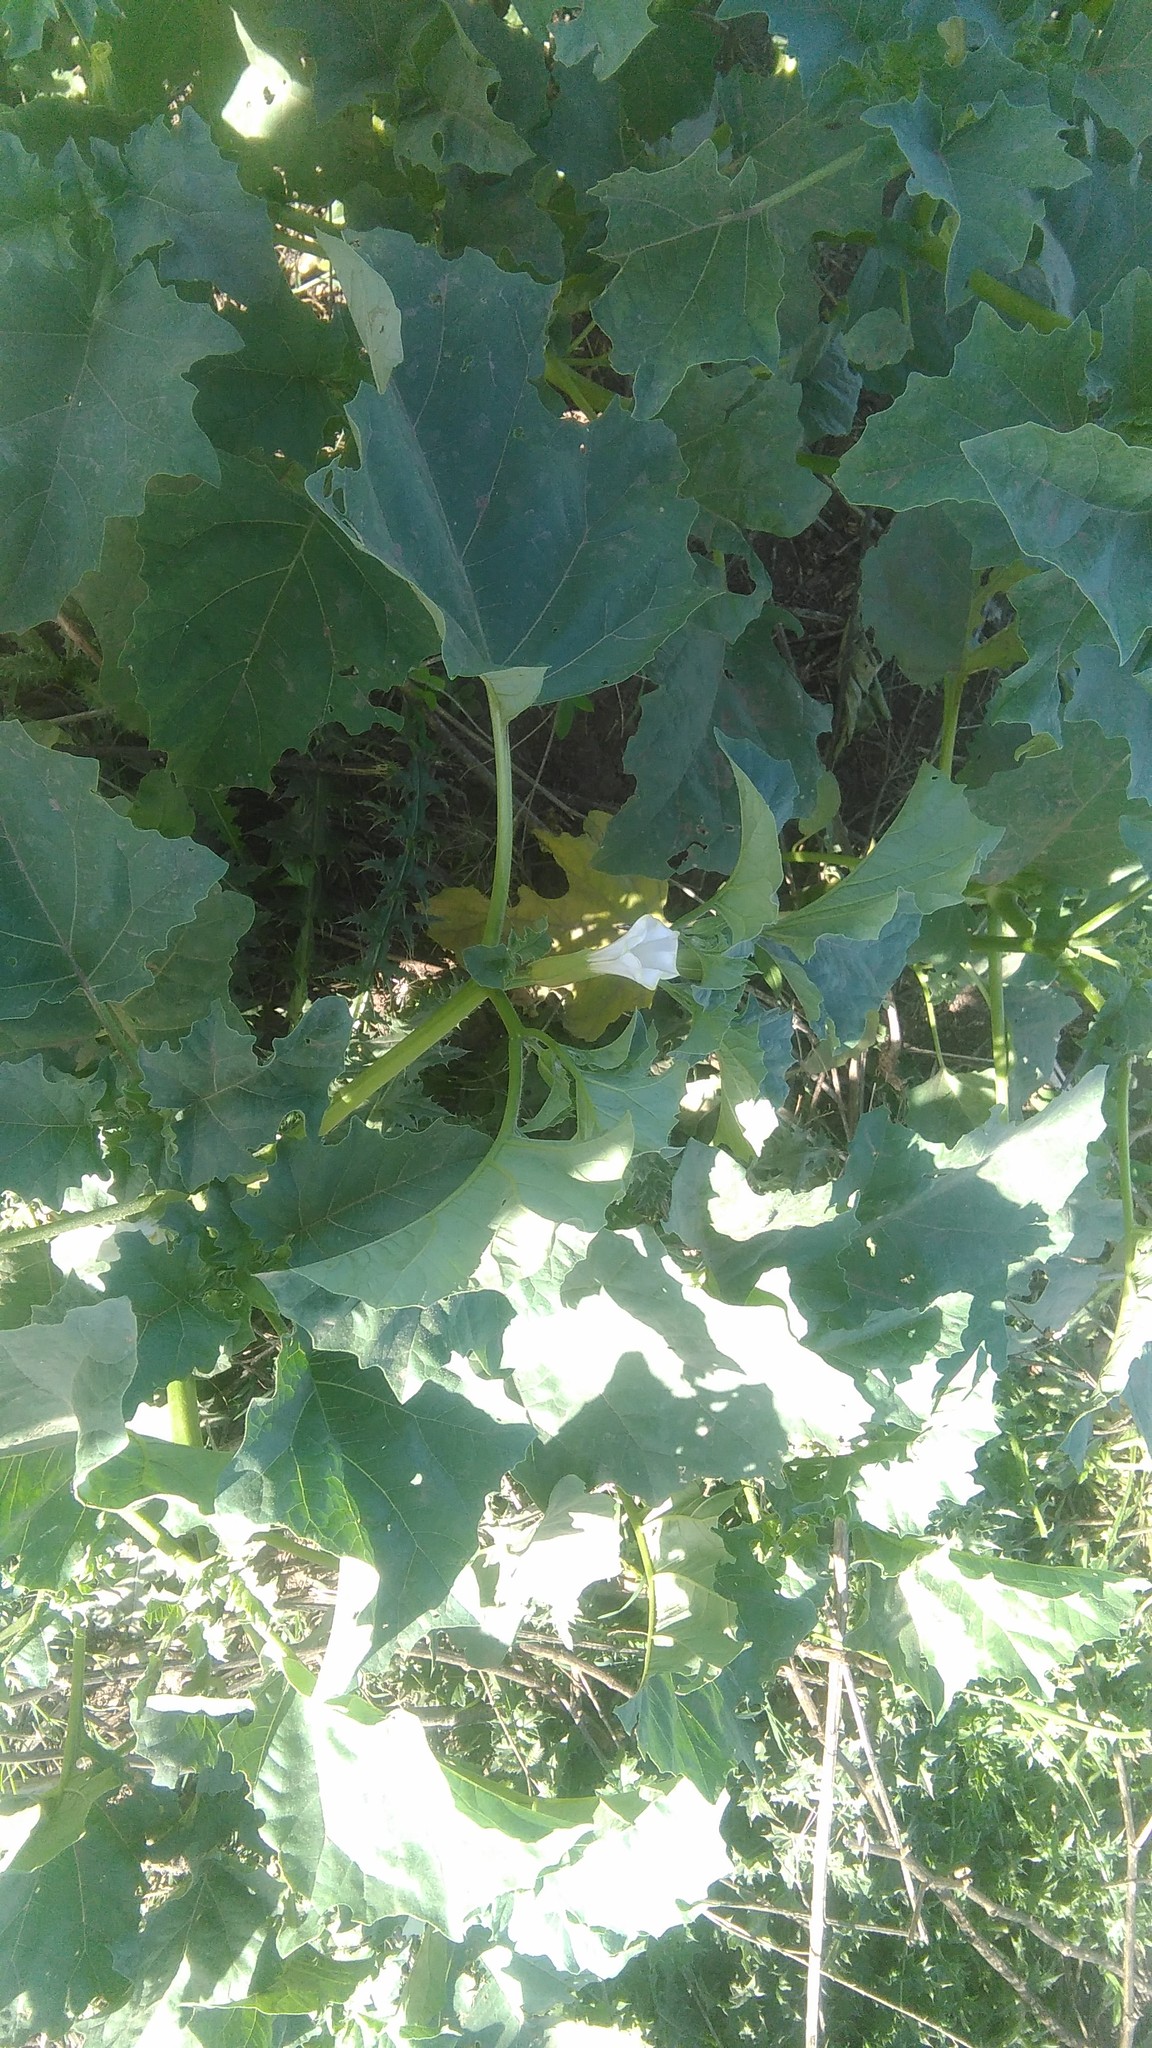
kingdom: Plantae
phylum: Tracheophyta
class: Magnoliopsida
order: Solanales
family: Solanaceae
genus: Datura
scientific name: Datura ferox
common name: Angel's-trumpets
